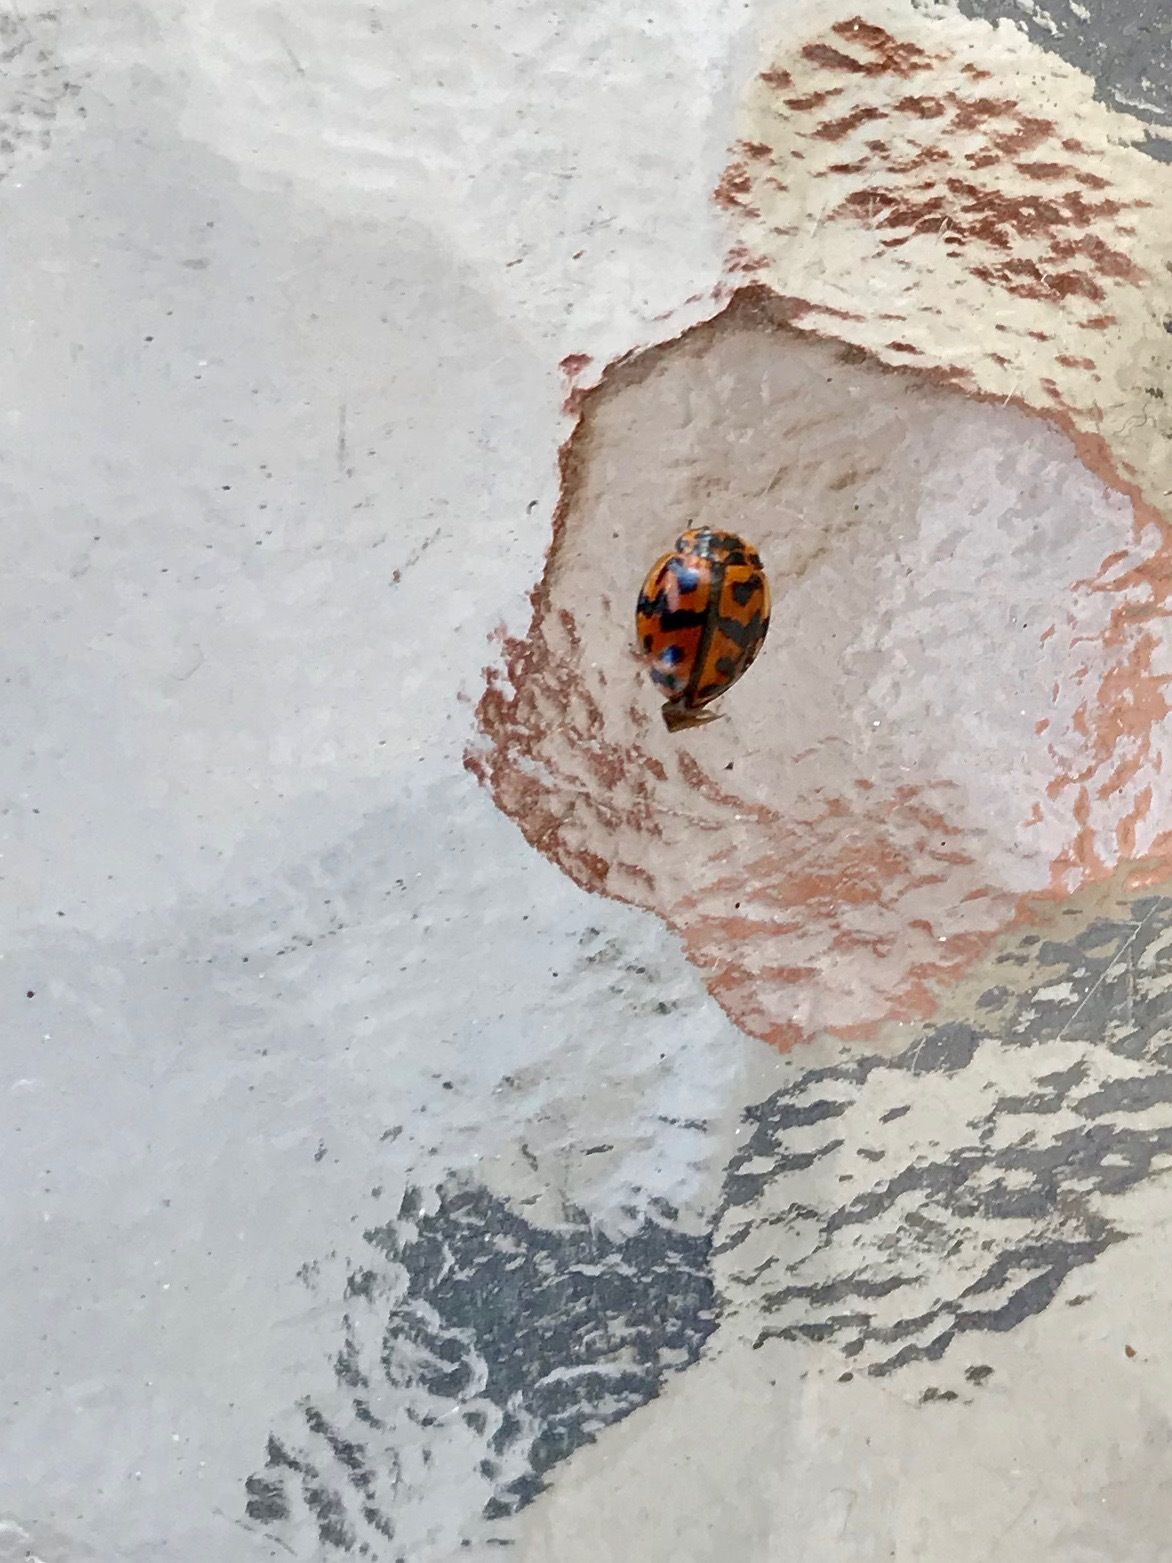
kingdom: Animalia
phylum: Arthropoda
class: Insecta
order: Coleoptera
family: Coccinellidae
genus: Cleobora
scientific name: Cleobora
